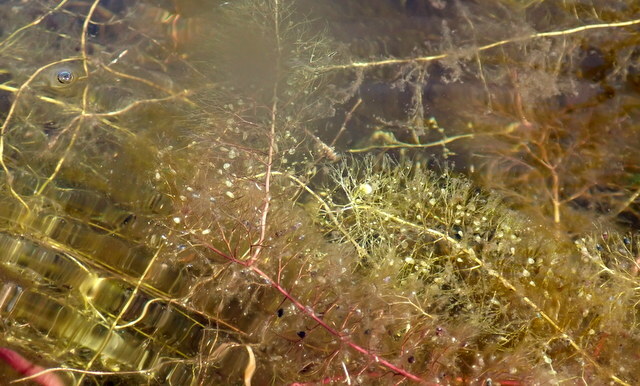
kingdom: Plantae
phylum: Tracheophyta
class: Magnoliopsida
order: Lamiales
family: Lentibulariaceae
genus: Utricularia
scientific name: Utricularia floridana
